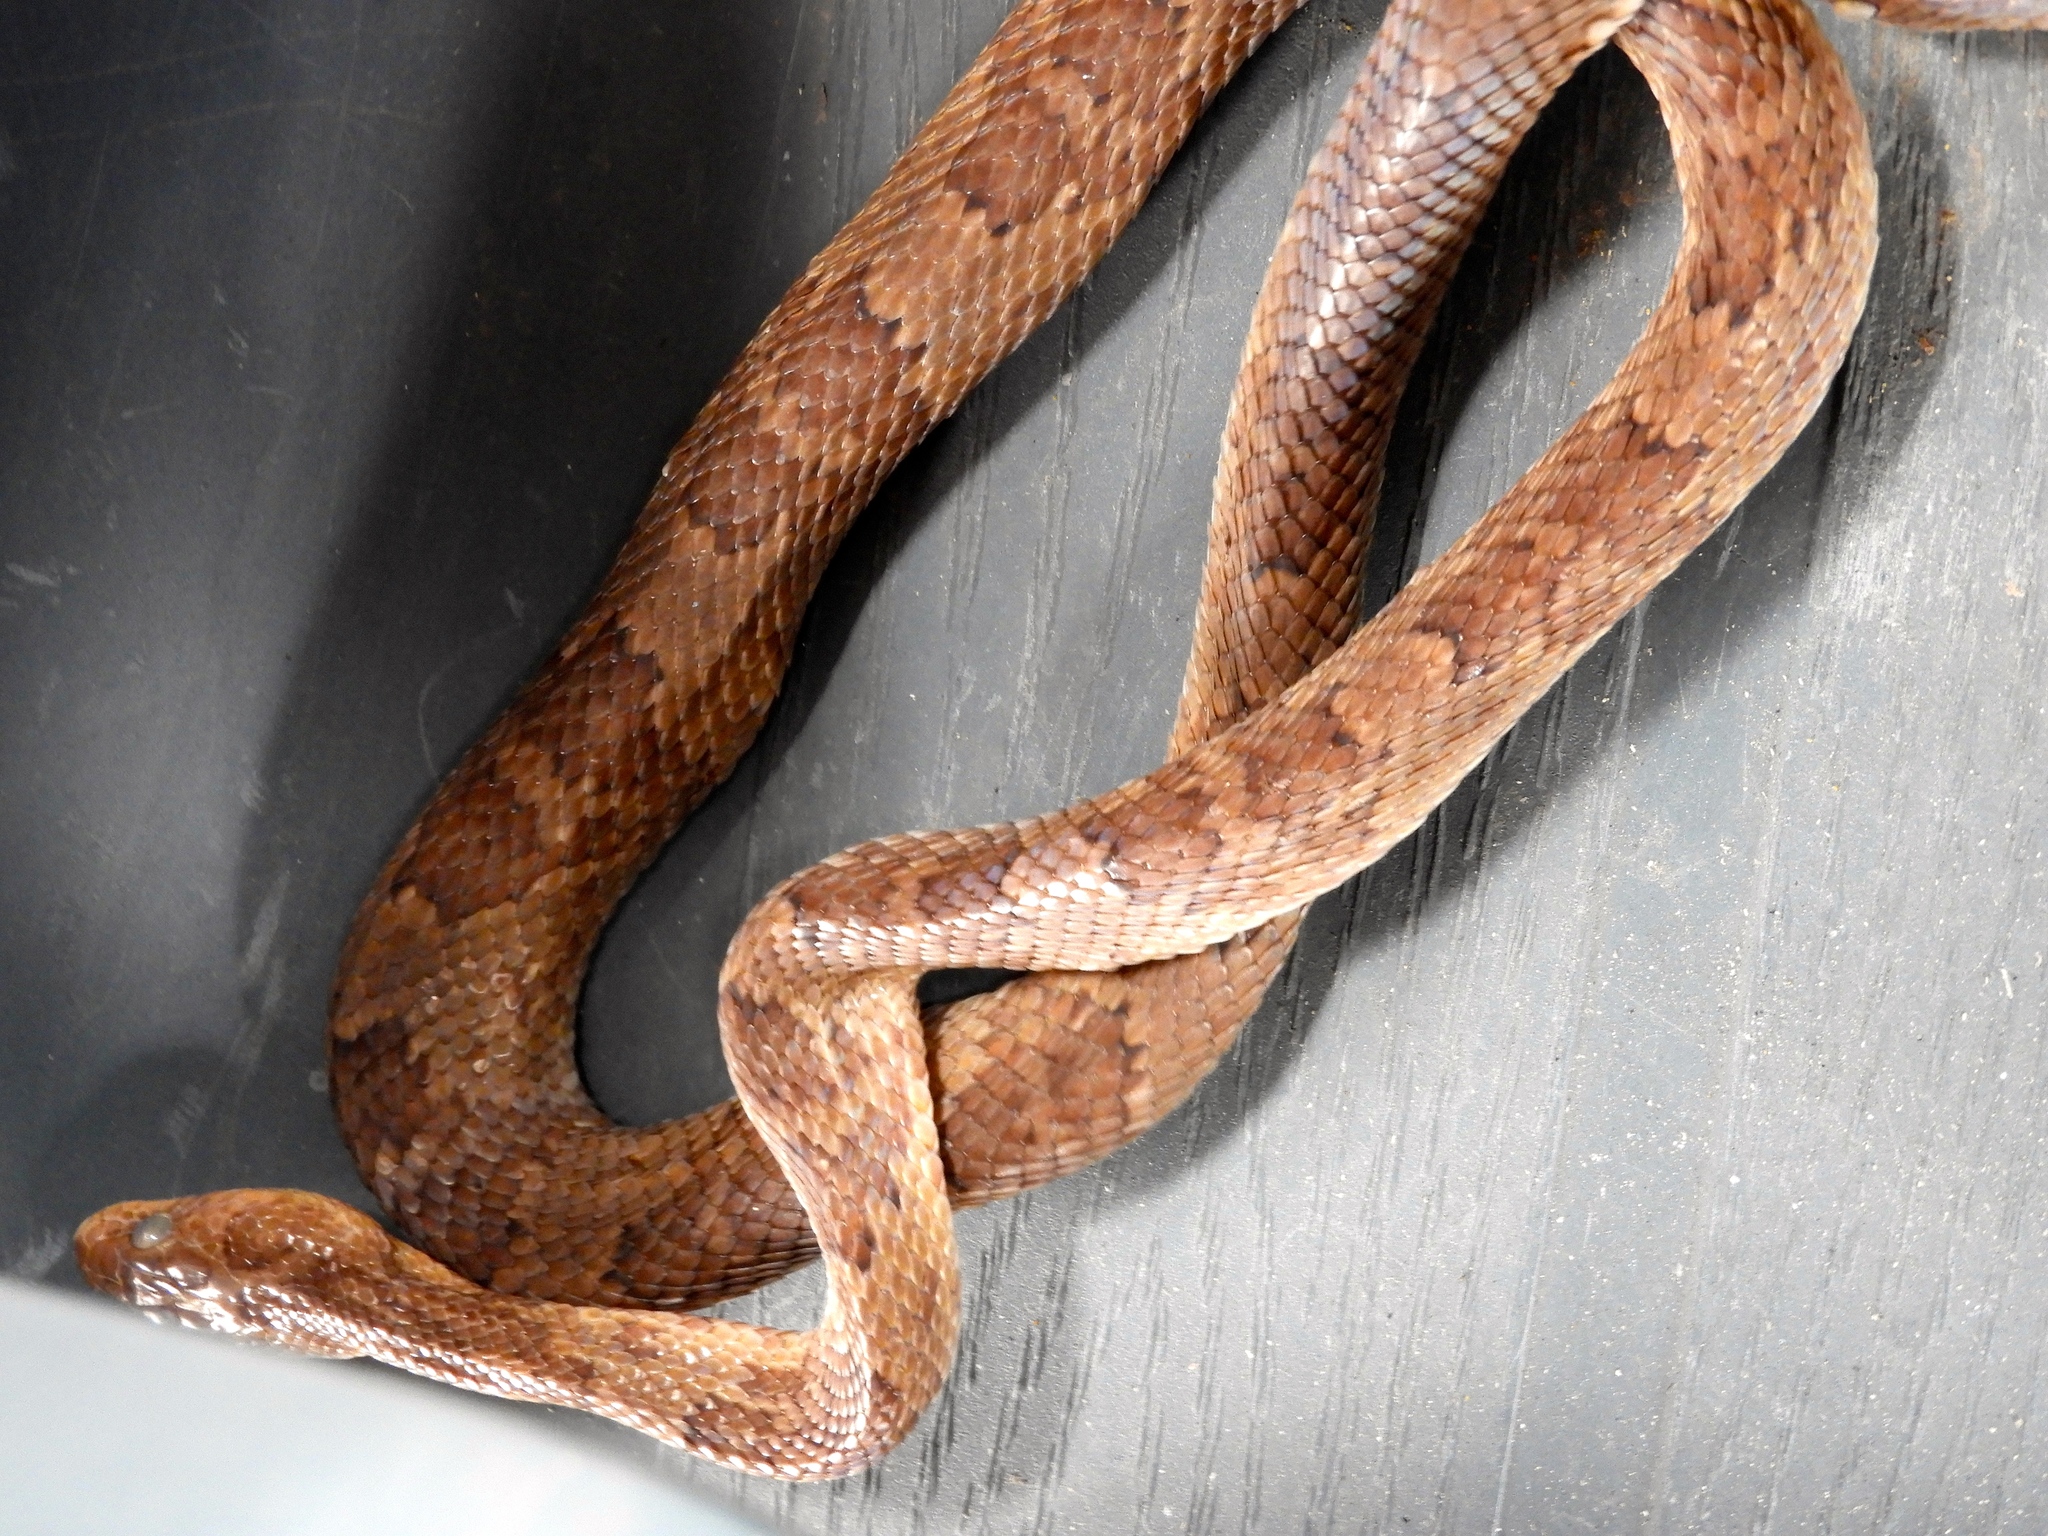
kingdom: Animalia
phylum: Chordata
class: Squamata
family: Colubridae
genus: Trimorphodon
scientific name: Trimorphodon paucimaculatus
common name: Sinaloan lyresnake
